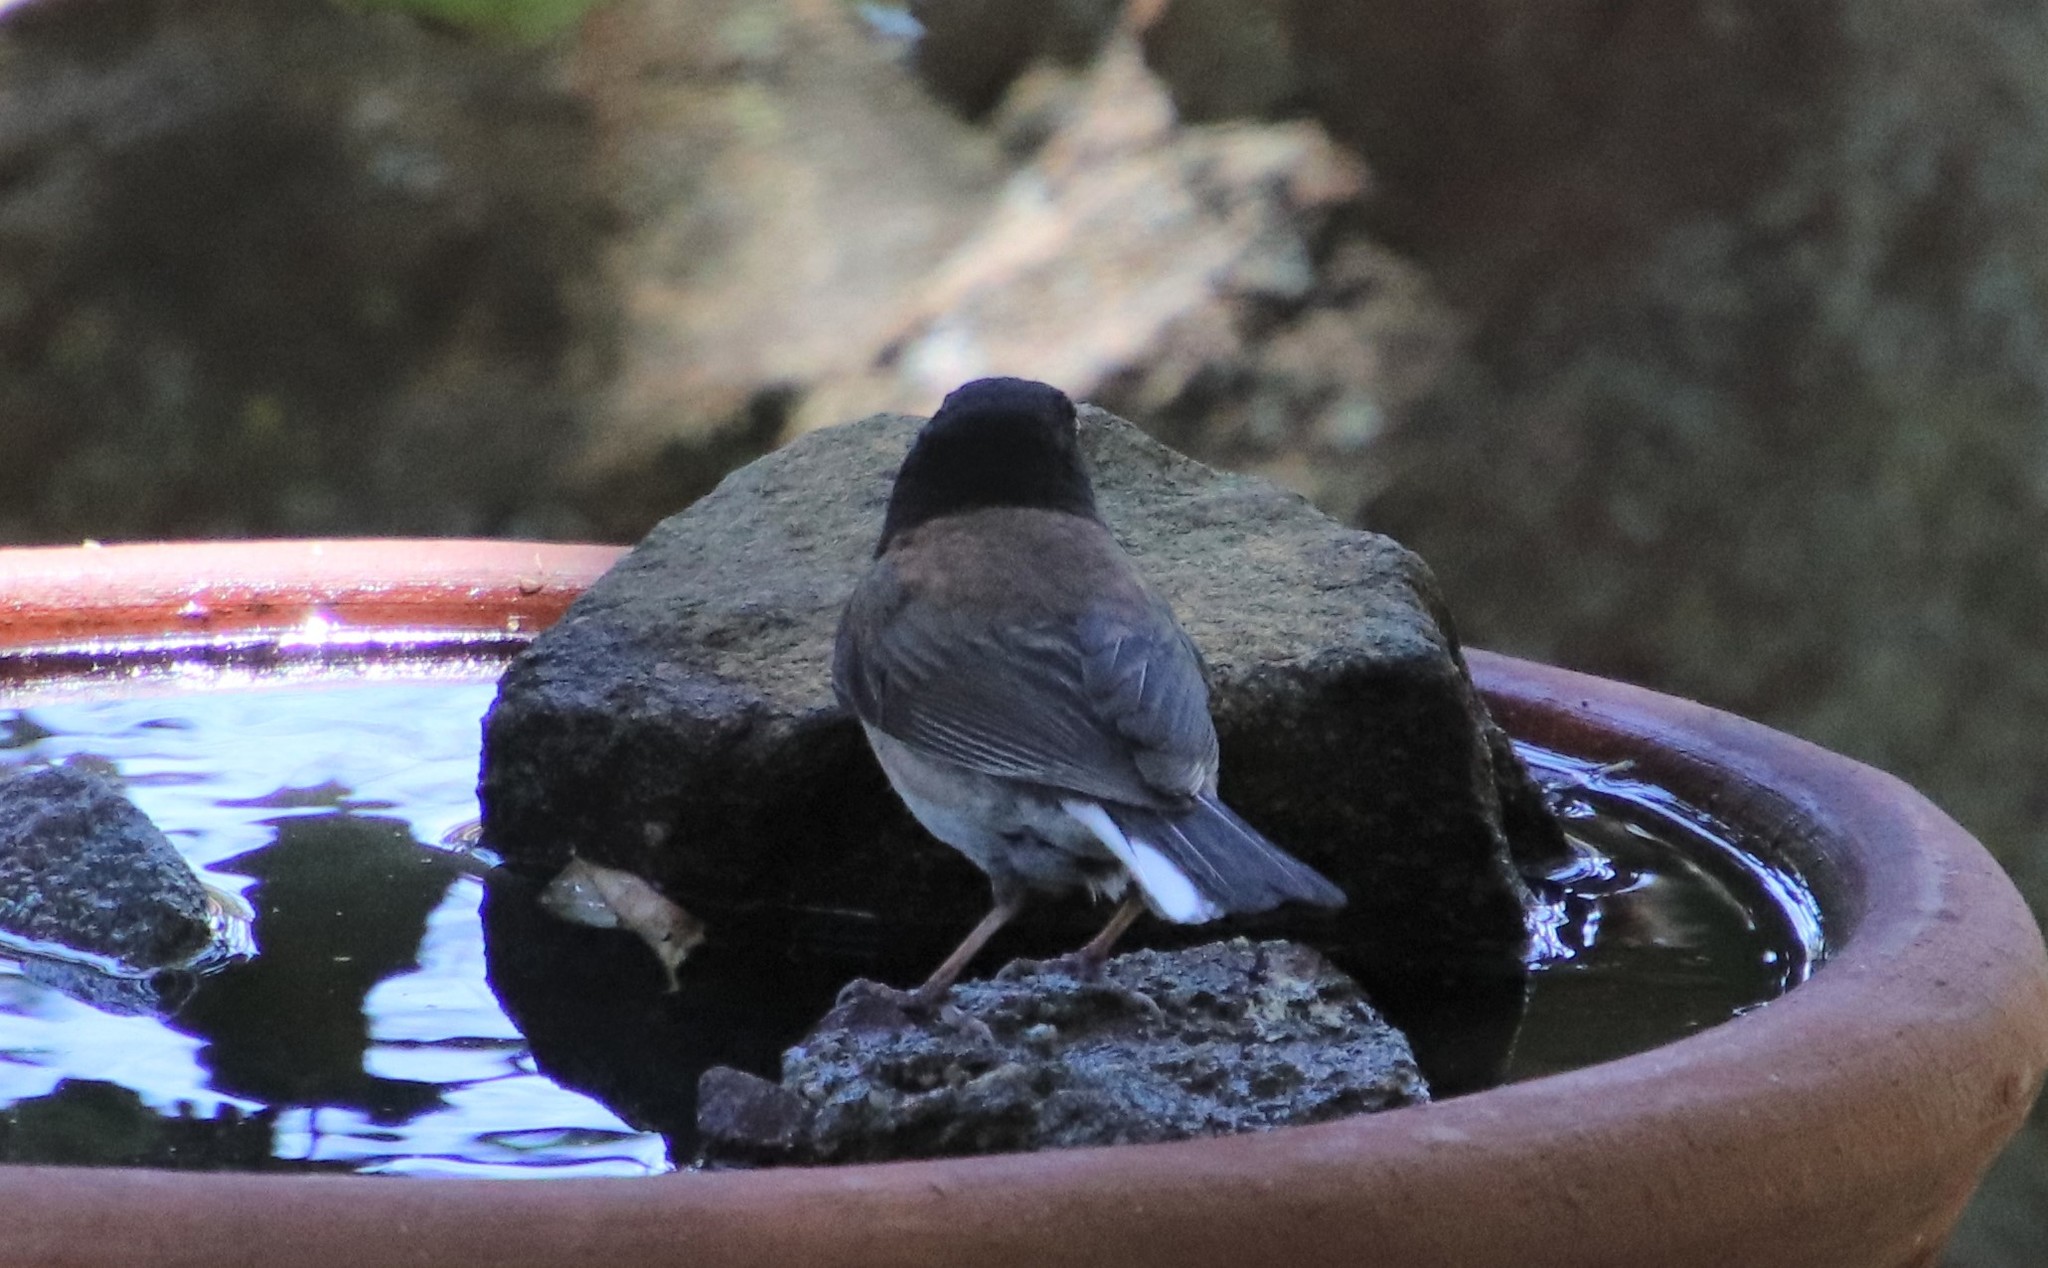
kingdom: Animalia
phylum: Chordata
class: Aves
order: Passeriformes
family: Passerellidae
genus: Junco
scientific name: Junco hyemalis
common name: Dark-eyed junco
